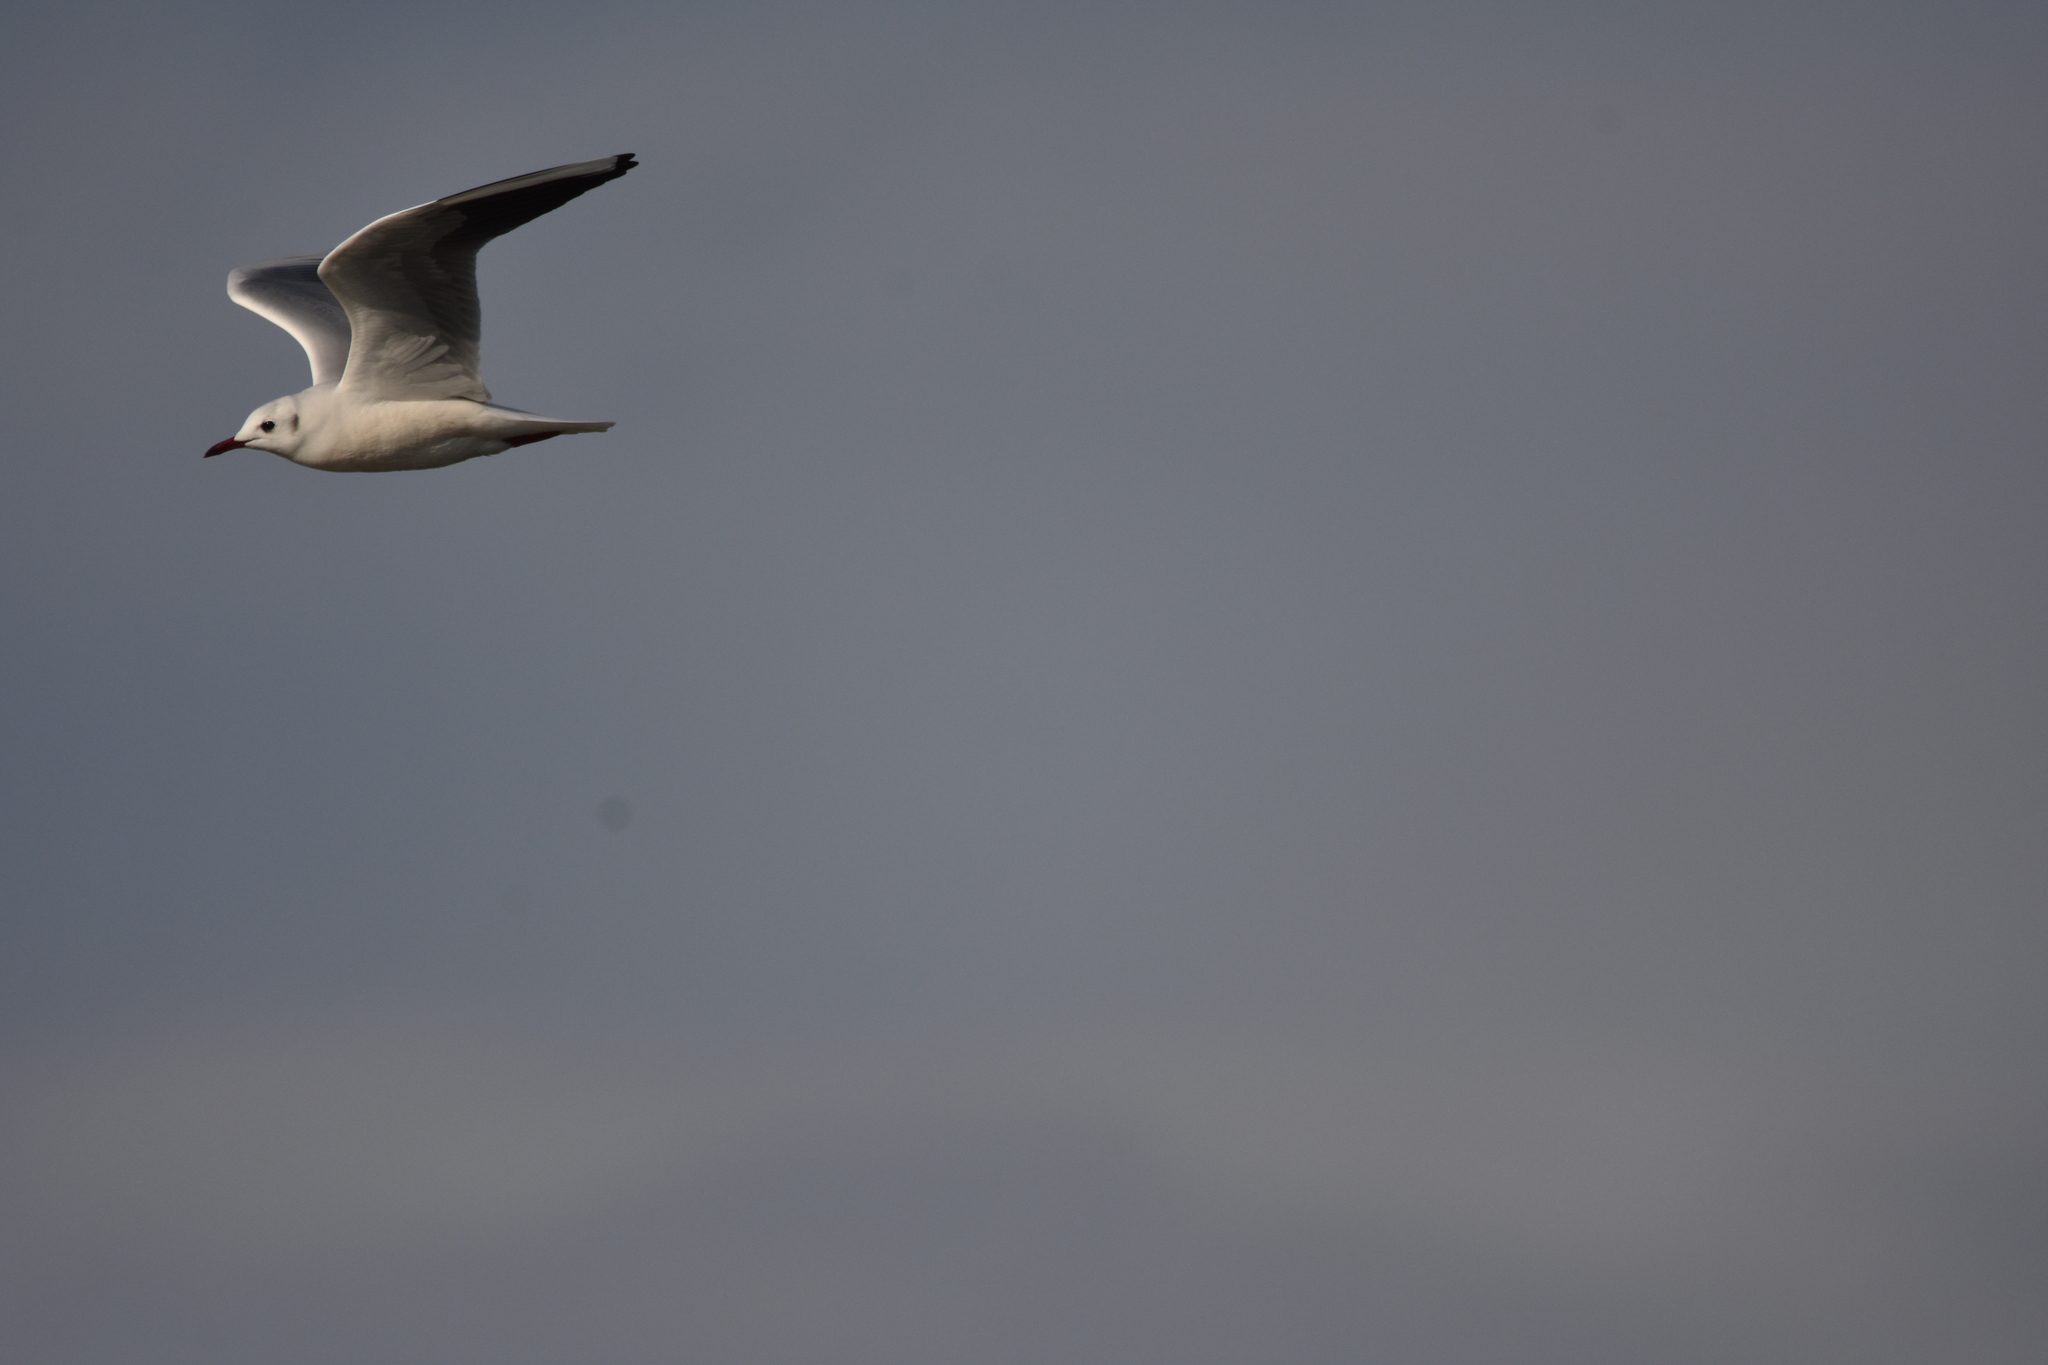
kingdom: Animalia
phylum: Chordata
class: Aves
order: Charadriiformes
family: Laridae
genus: Chroicocephalus
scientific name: Chroicocephalus ridibundus
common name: Black-headed gull
